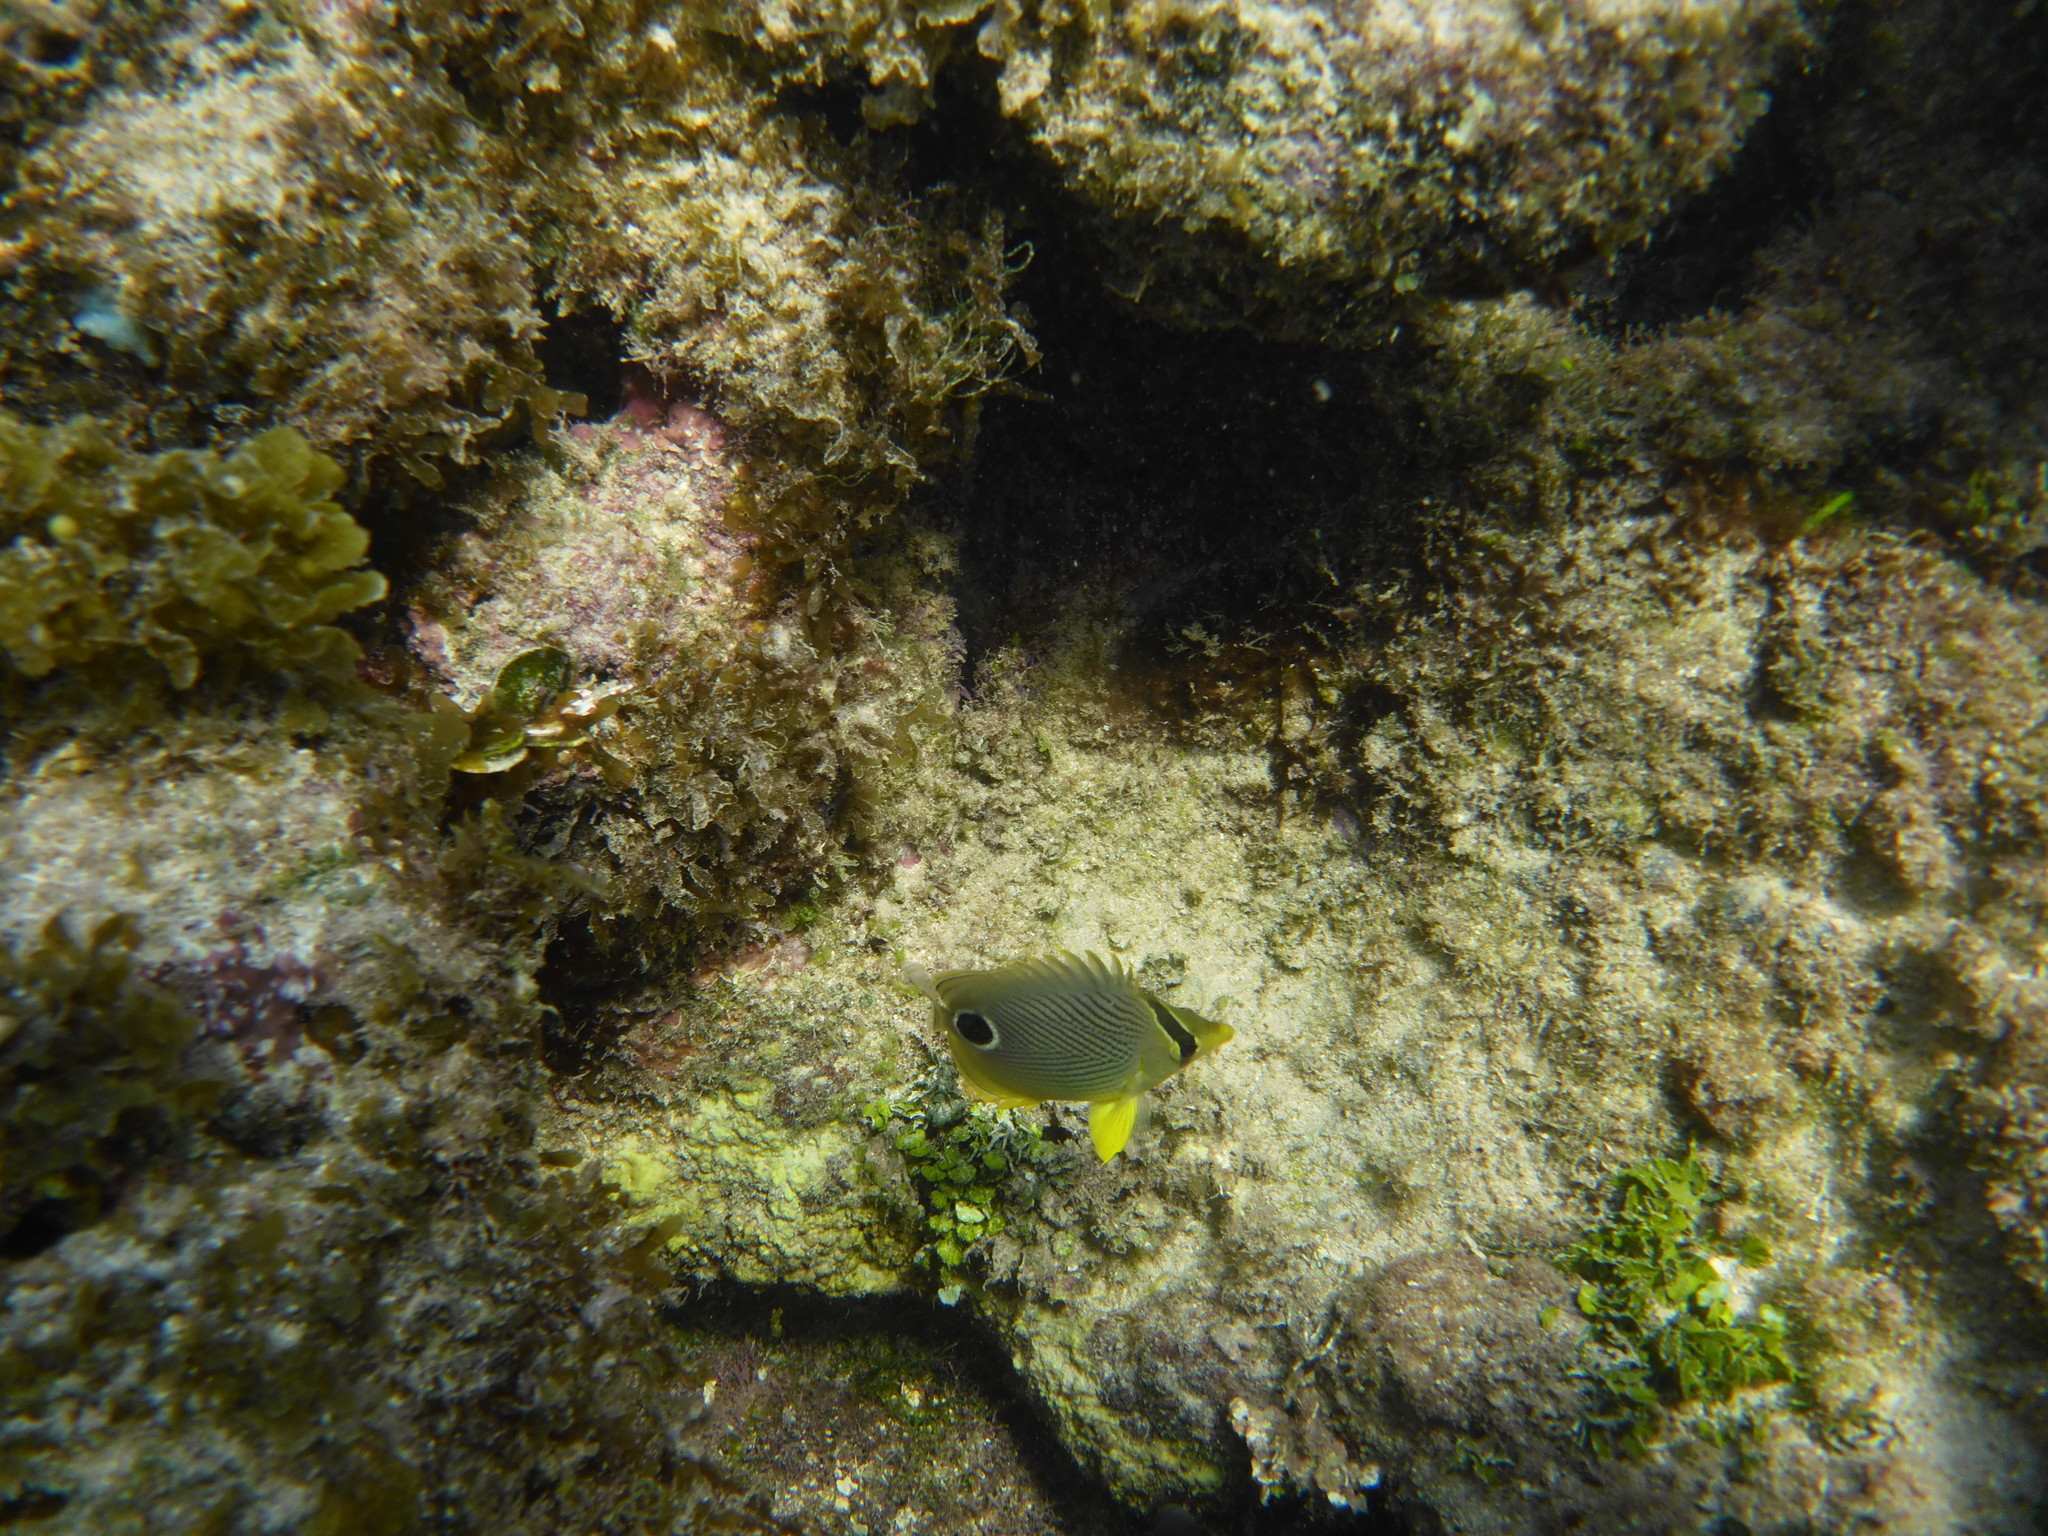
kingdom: Animalia
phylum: Chordata
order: Perciformes
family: Chaetodontidae
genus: Chaetodon
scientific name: Chaetodon capistratus
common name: Kete
